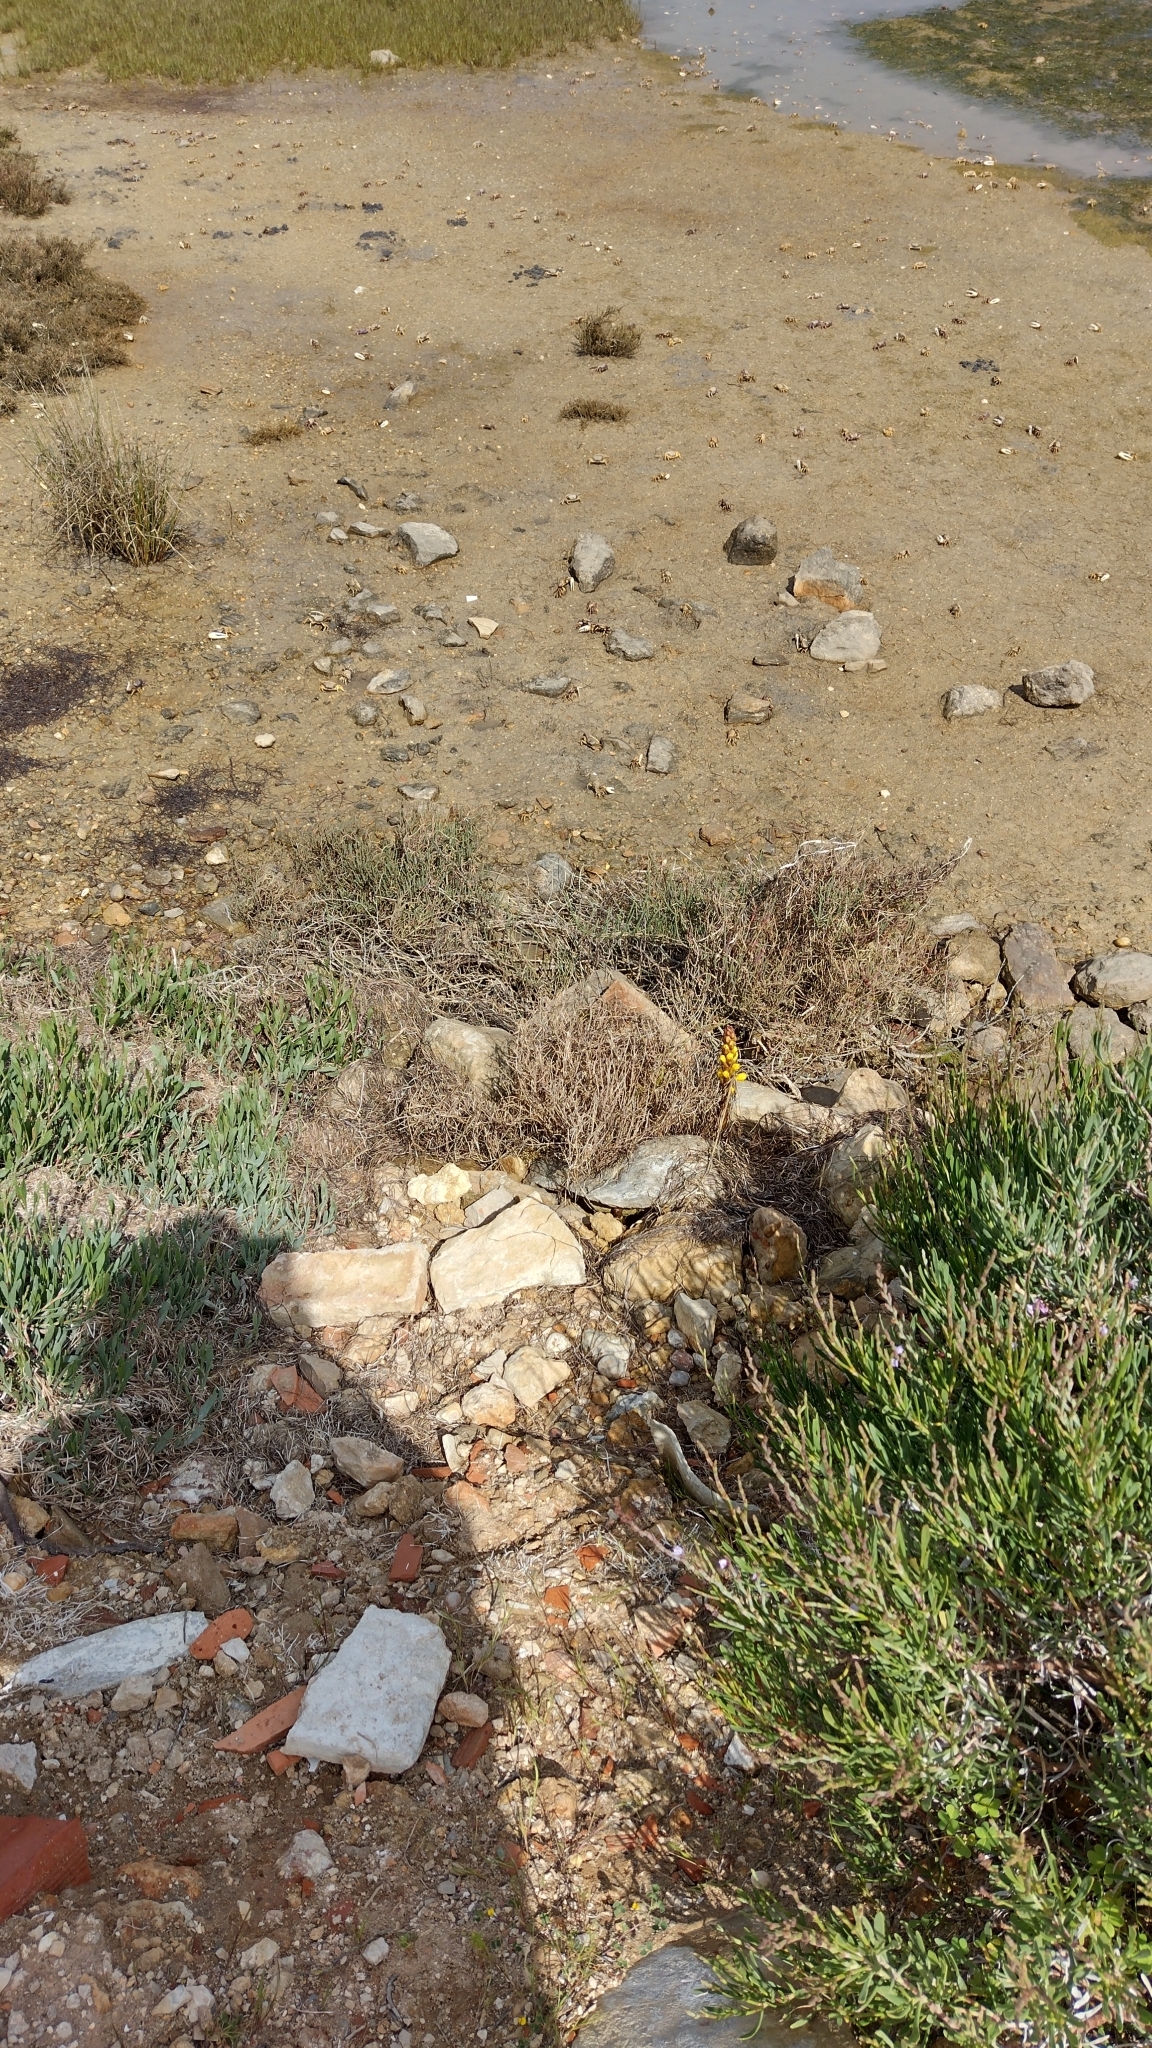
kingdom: Animalia
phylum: Arthropoda
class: Malacostraca
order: Decapoda
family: Ocypodidae
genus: Afruca
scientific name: Afruca tangeri
